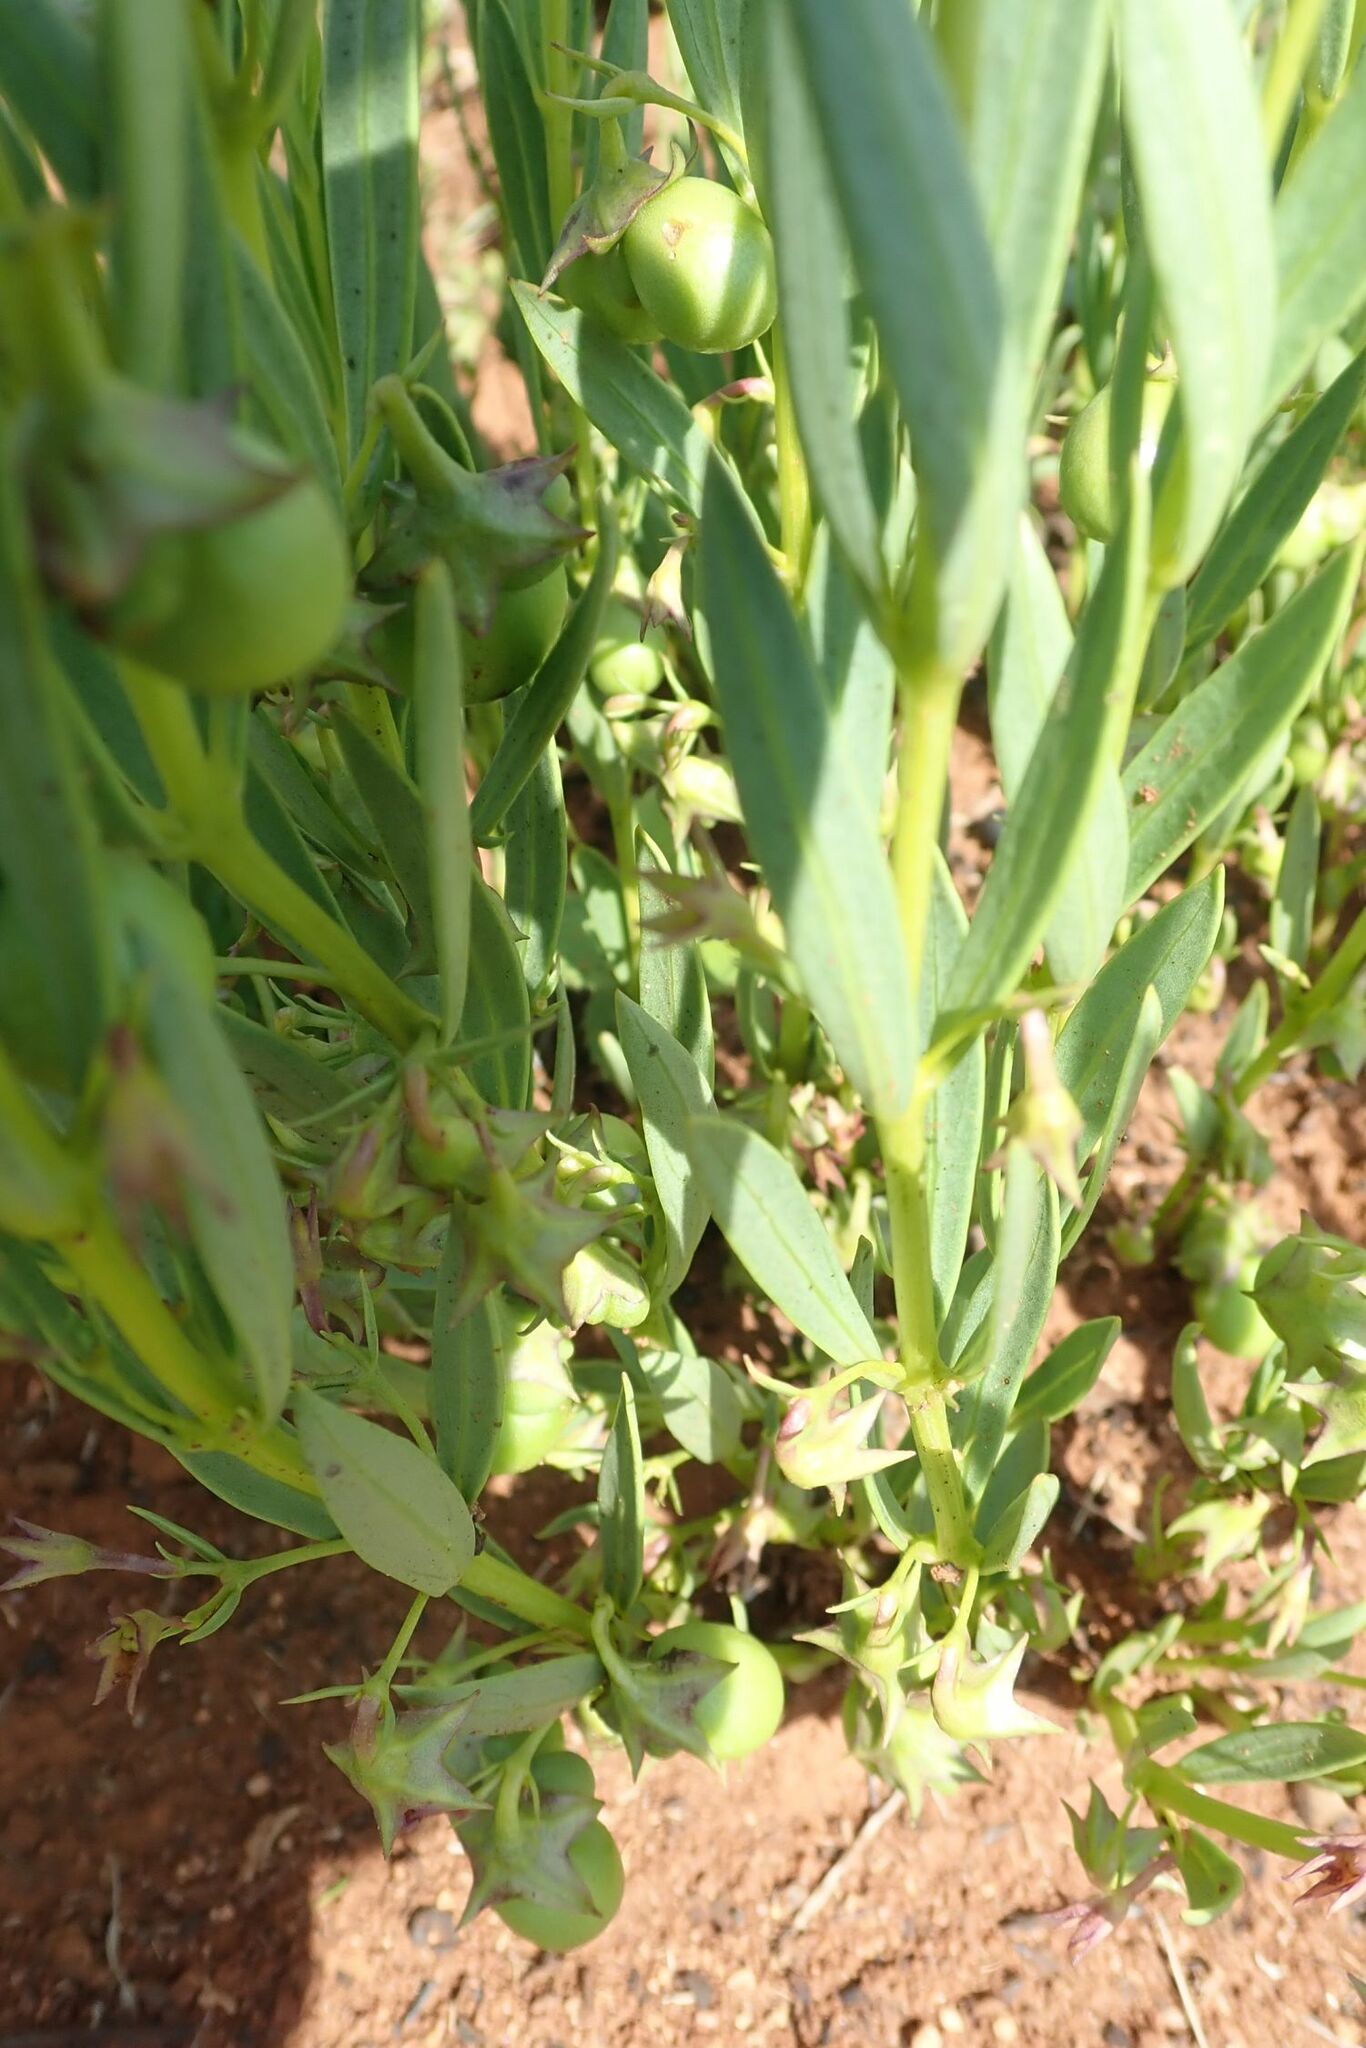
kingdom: Plantae
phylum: Tracheophyta
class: Magnoliopsida
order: Lamiales
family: Lamiaceae
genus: Rotheca
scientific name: Rotheca hirsuta
